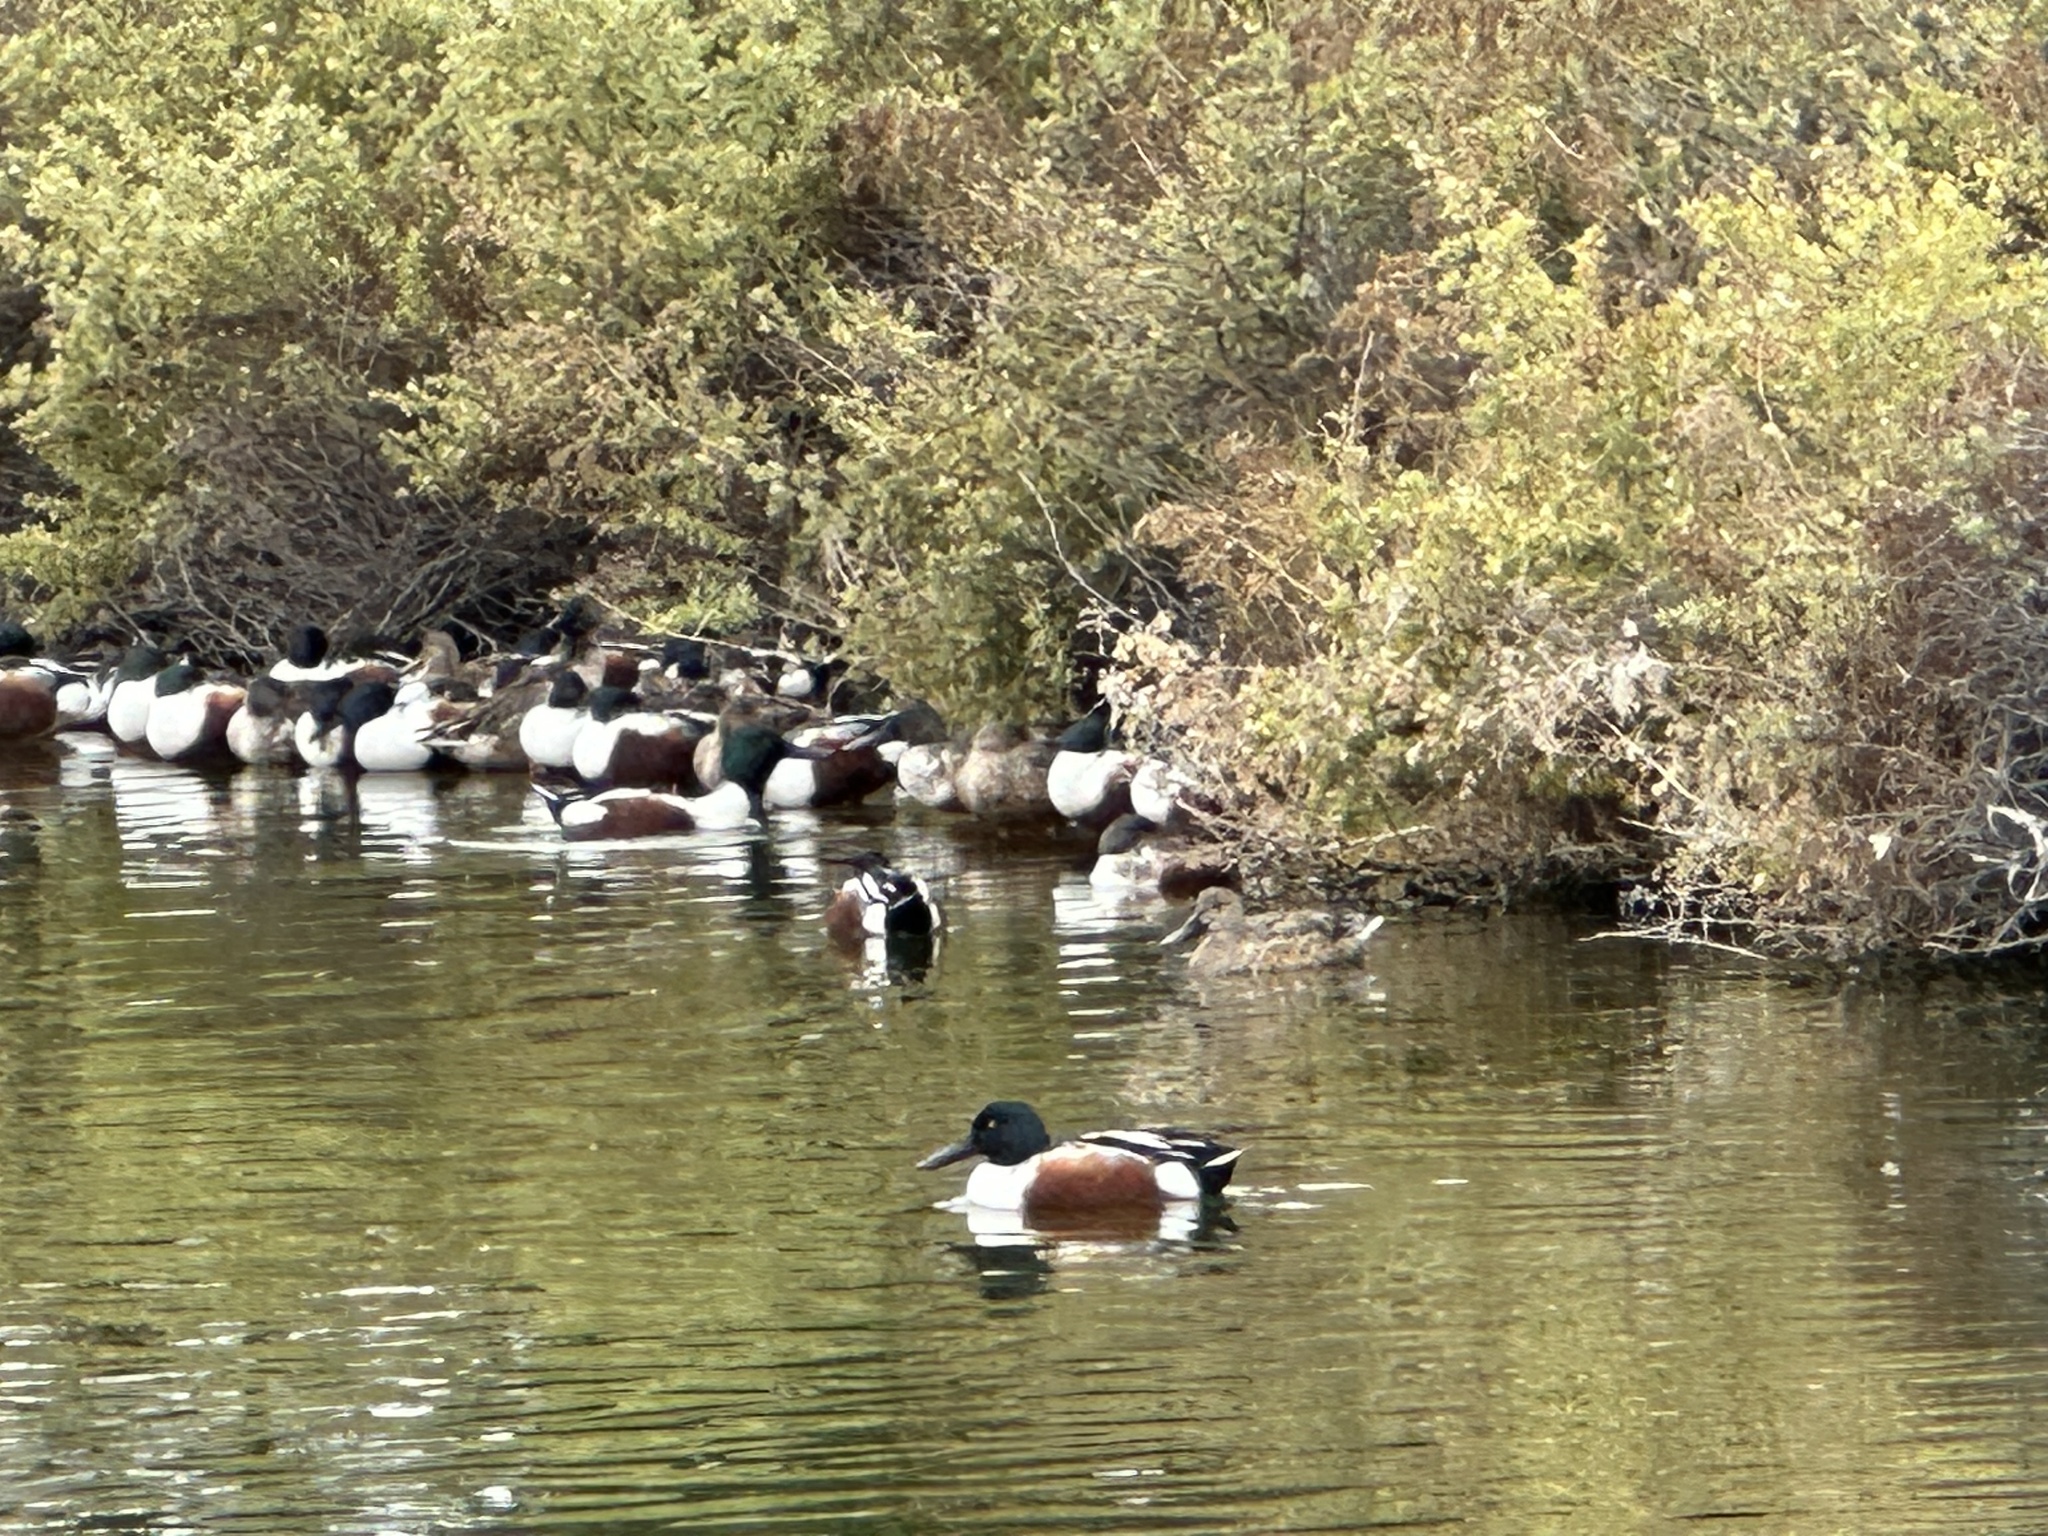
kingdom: Animalia
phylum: Chordata
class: Aves
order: Anseriformes
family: Anatidae
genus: Spatula
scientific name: Spatula clypeata
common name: Northern shoveler
